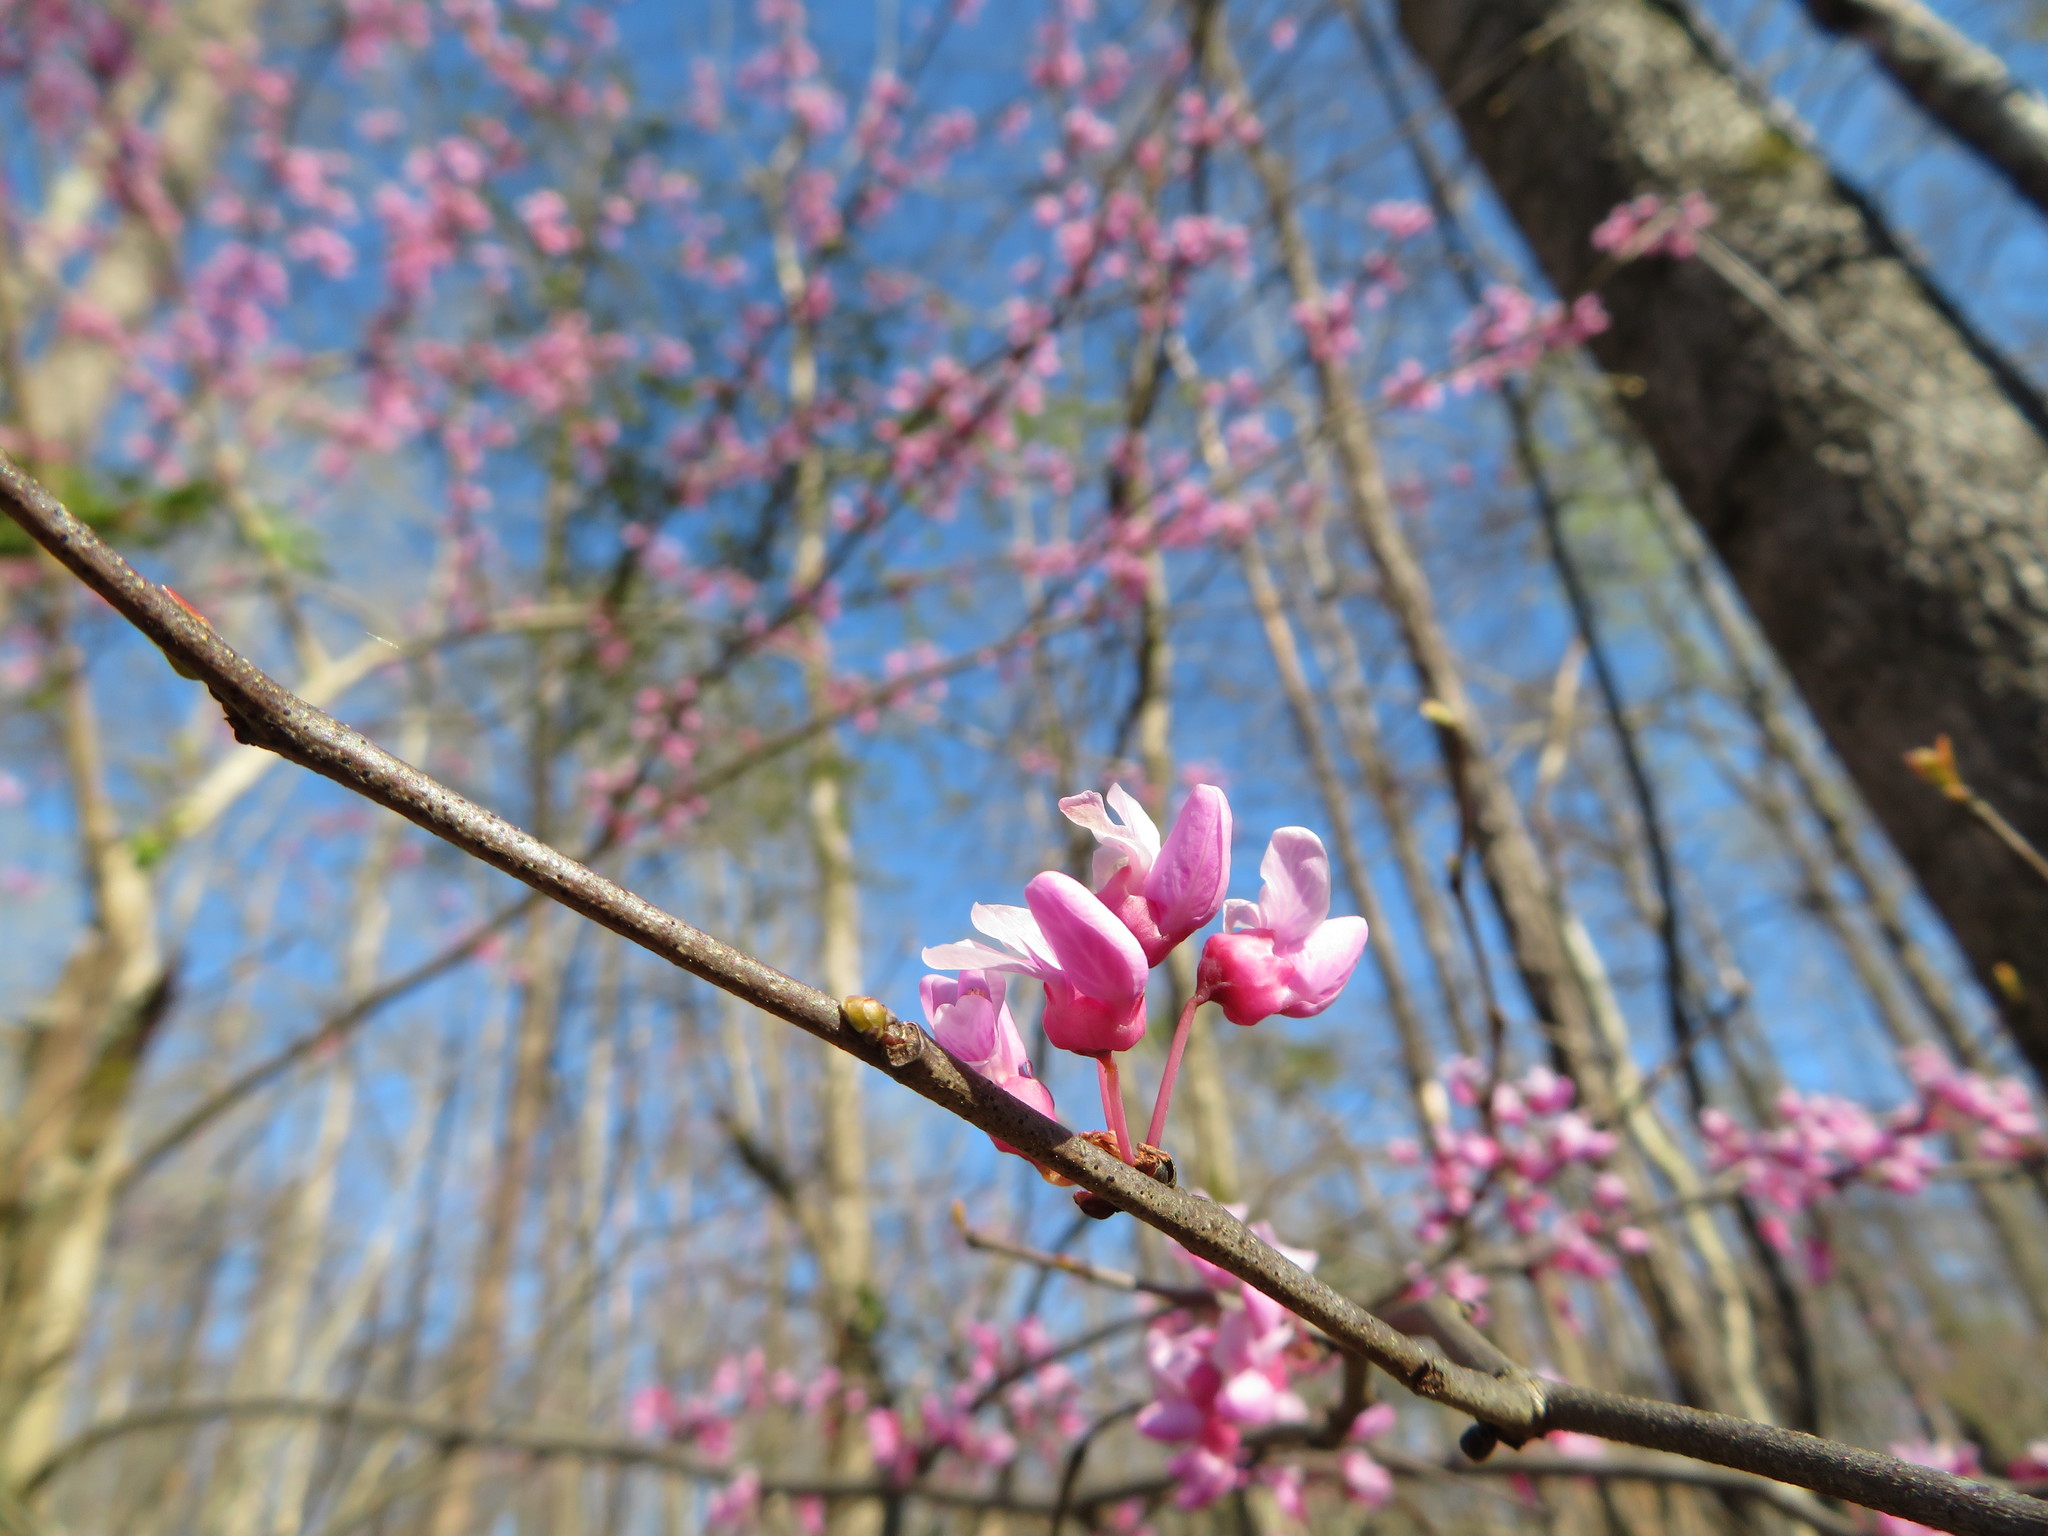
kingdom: Plantae
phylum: Tracheophyta
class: Magnoliopsida
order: Fabales
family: Fabaceae
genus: Cercis
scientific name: Cercis canadensis
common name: Eastern redbud
